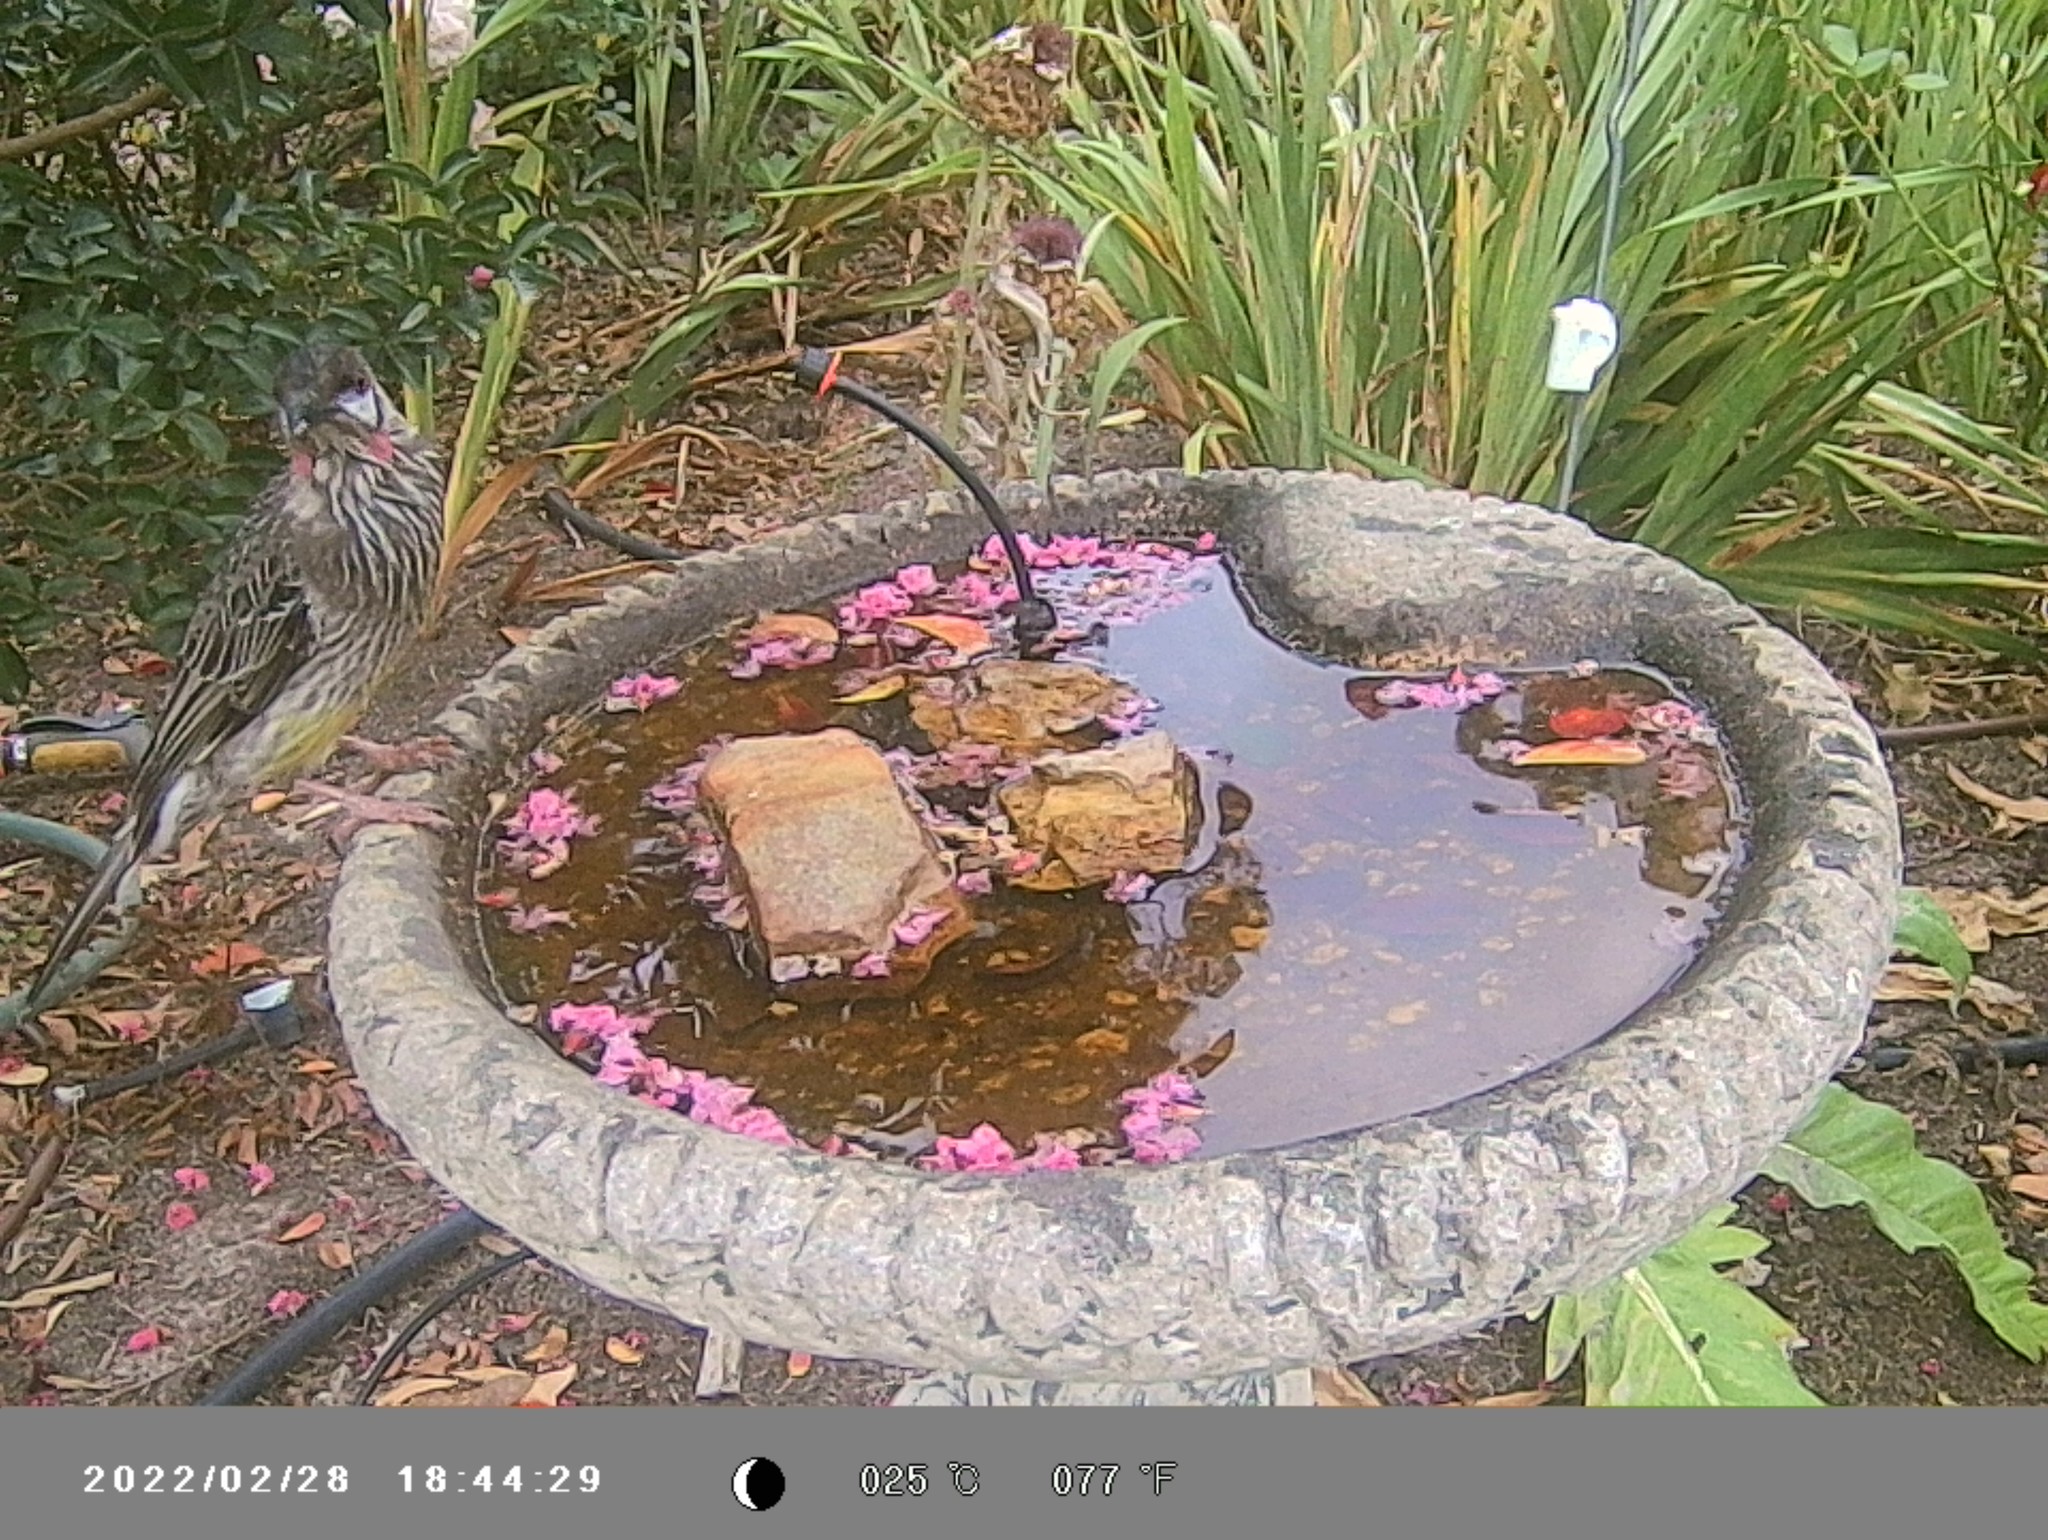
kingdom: Animalia
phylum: Chordata
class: Aves
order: Passeriformes
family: Meliphagidae
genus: Anthochaera
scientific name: Anthochaera carunculata
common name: Red wattlebird
